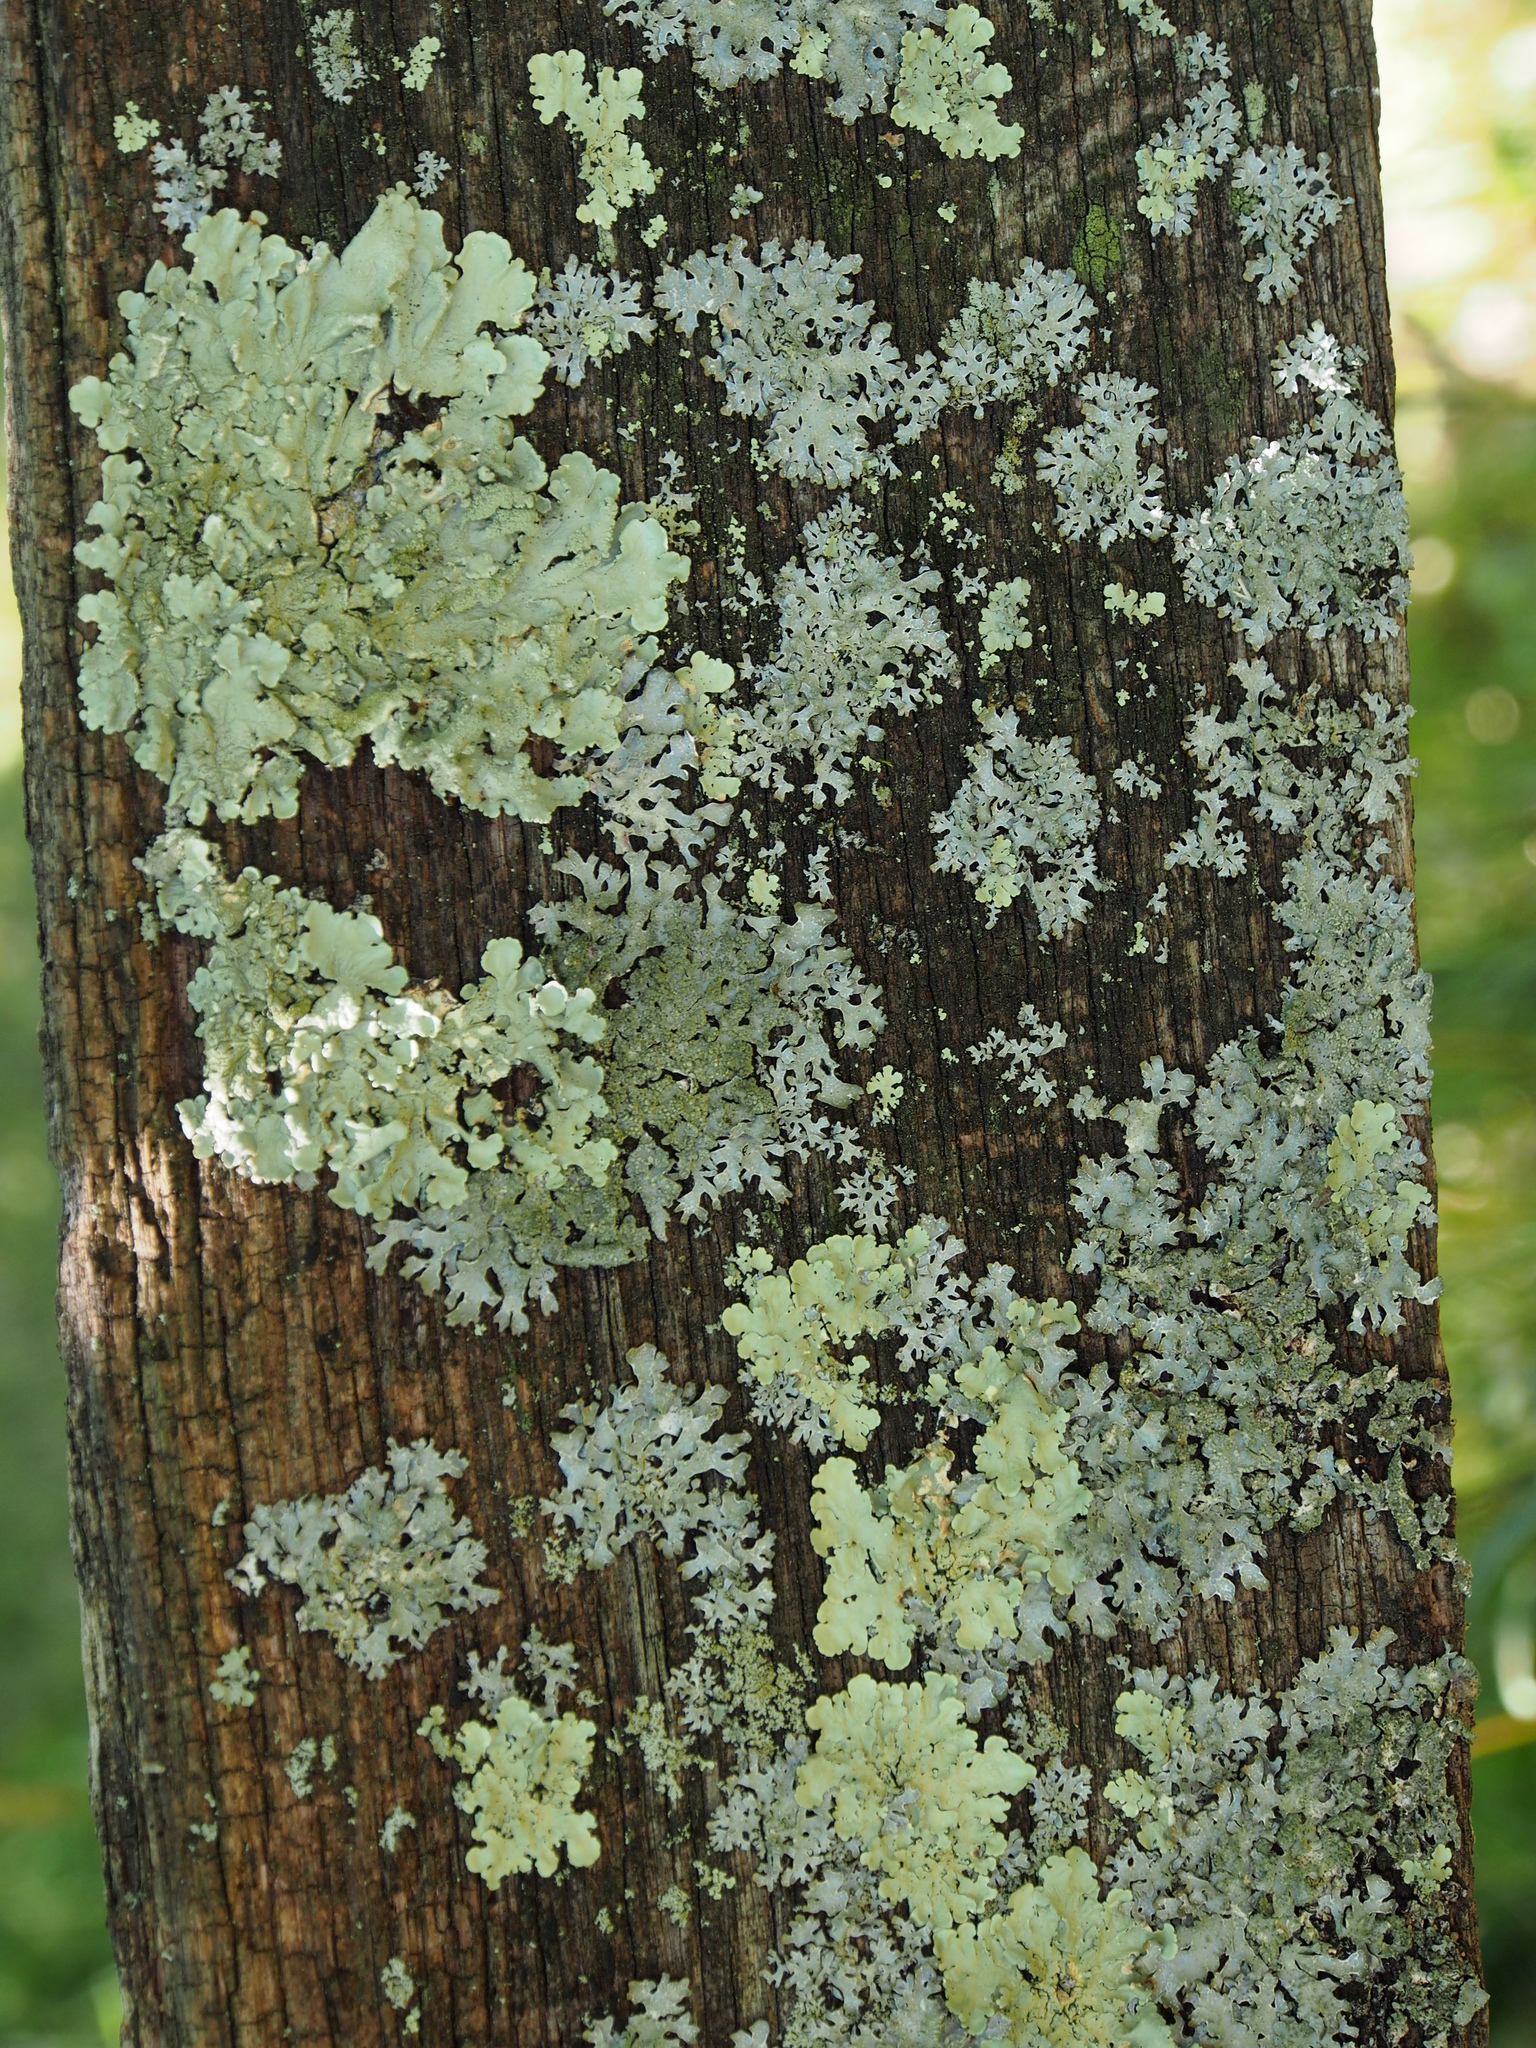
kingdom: Fungi
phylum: Ascomycota
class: Lecanoromycetes
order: Lecanorales
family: Parmeliaceae
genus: Parmelia
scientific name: Parmelia sulcata
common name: Netted shield lichen
